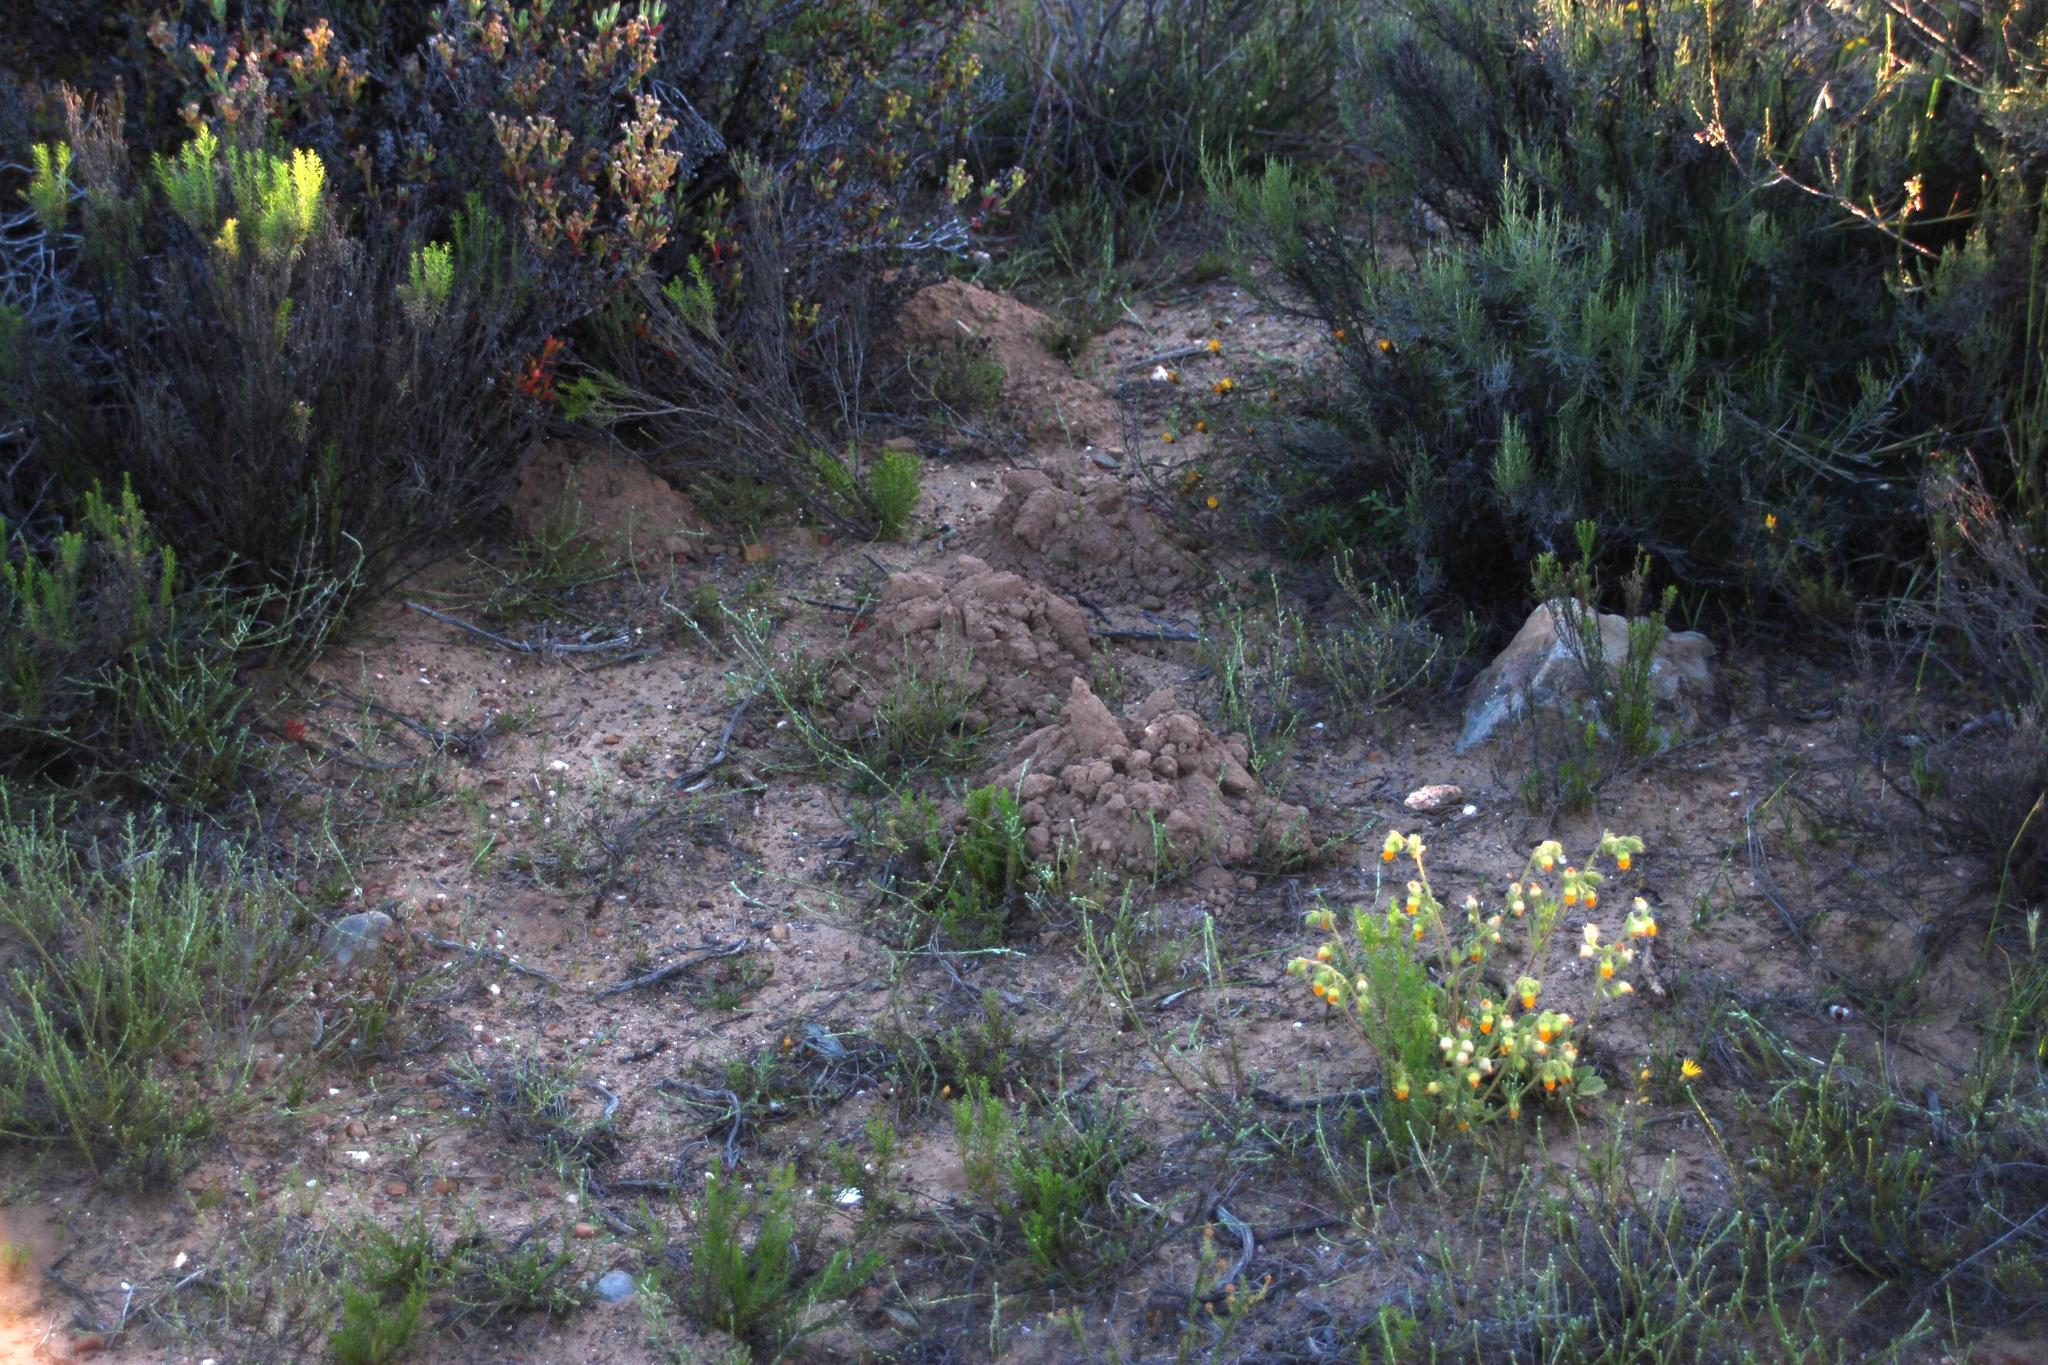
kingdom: Animalia
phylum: Chordata
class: Mammalia
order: Rodentia
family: Bathyergidae
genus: Cryptomys
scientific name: Cryptomys hottentotus
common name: Southern african mole-rat
